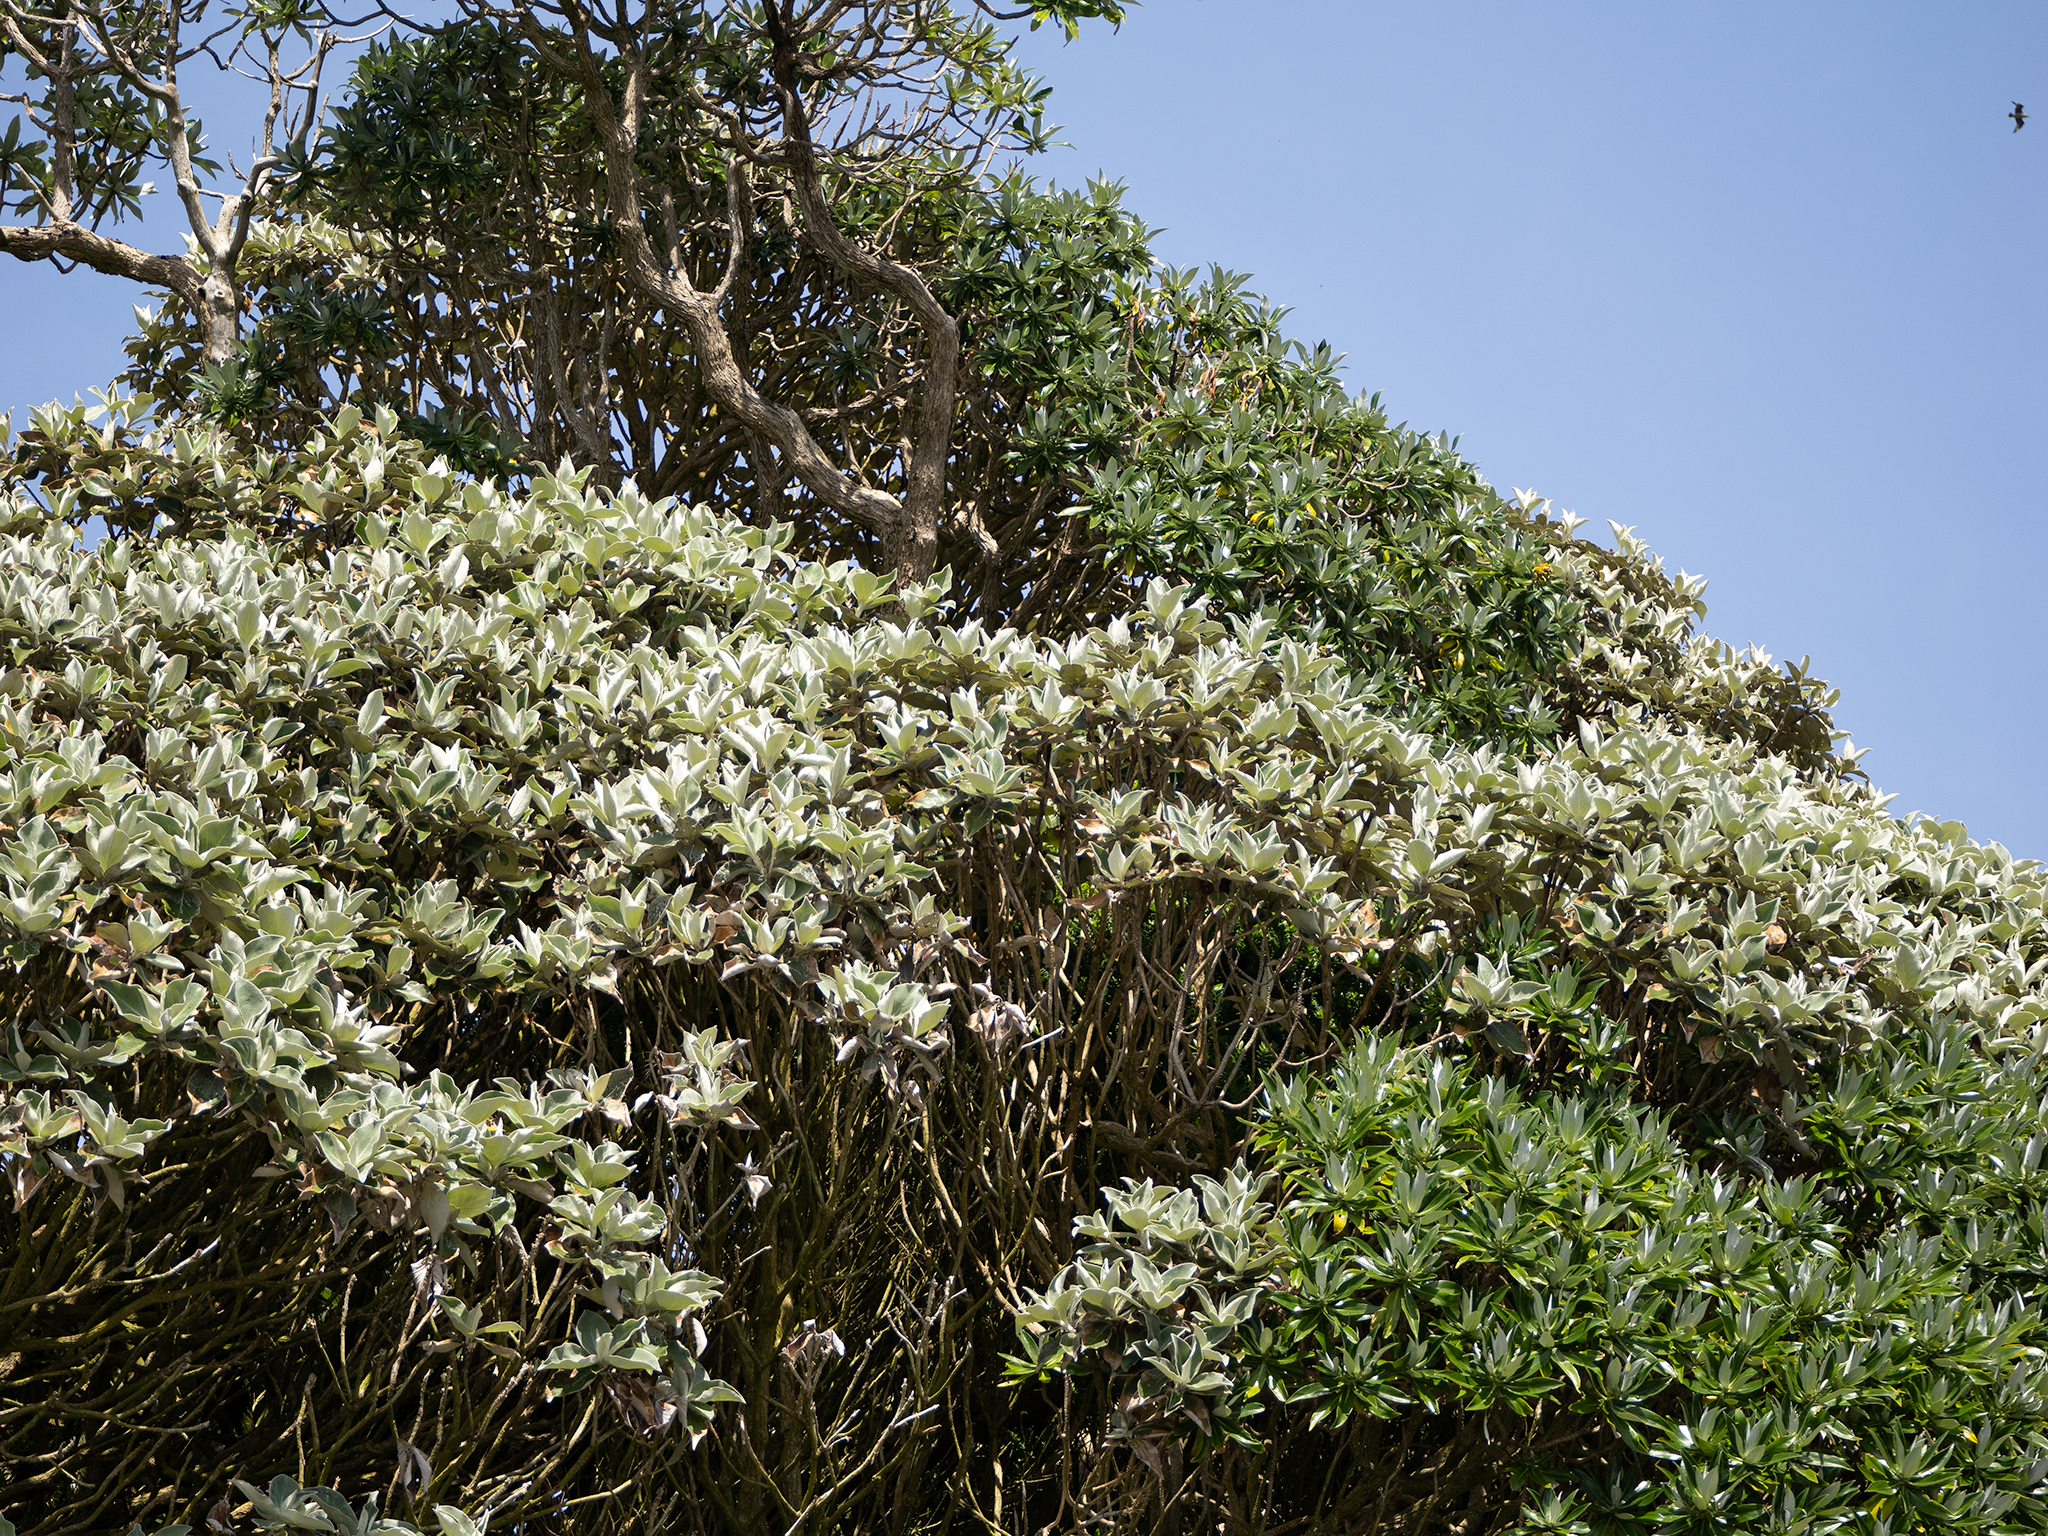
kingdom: Plantae
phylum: Tracheophyta
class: Magnoliopsida
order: Asterales
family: Asteraceae
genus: Macrolearia
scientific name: Macrolearia lyallii
